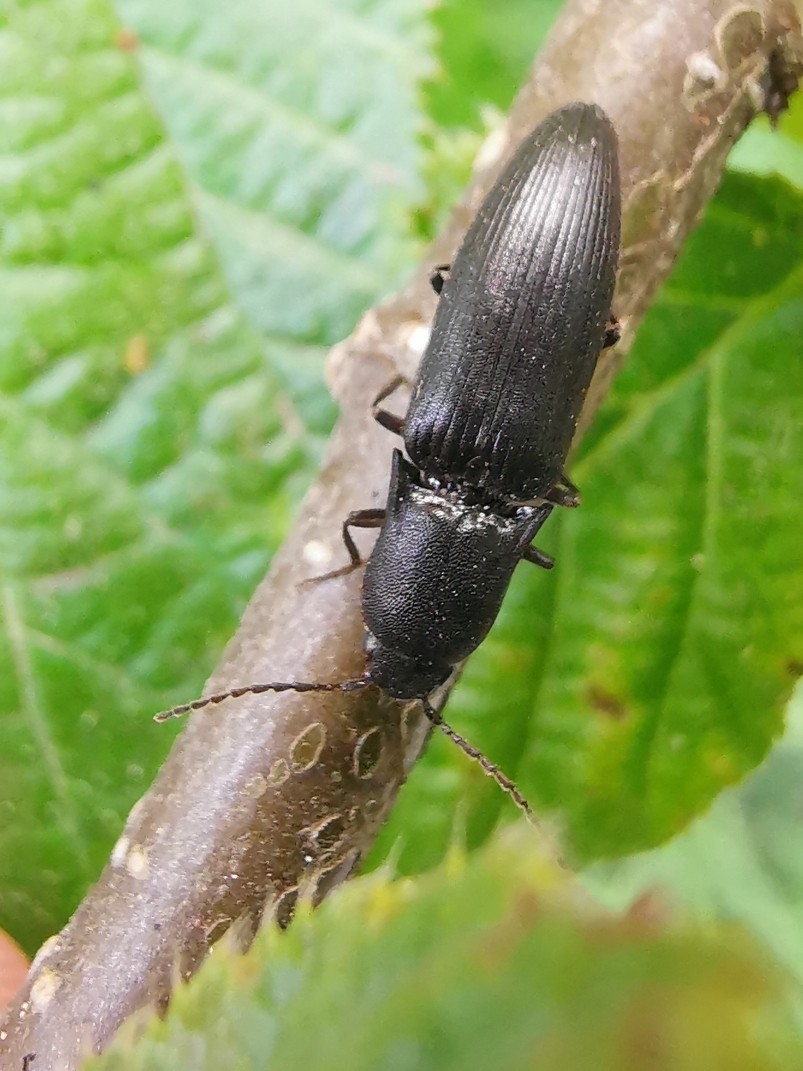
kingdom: Animalia
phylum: Arthropoda
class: Insecta
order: Coleoptera
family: Elateridae
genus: Ectinus
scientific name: Ectinus aterrimus
